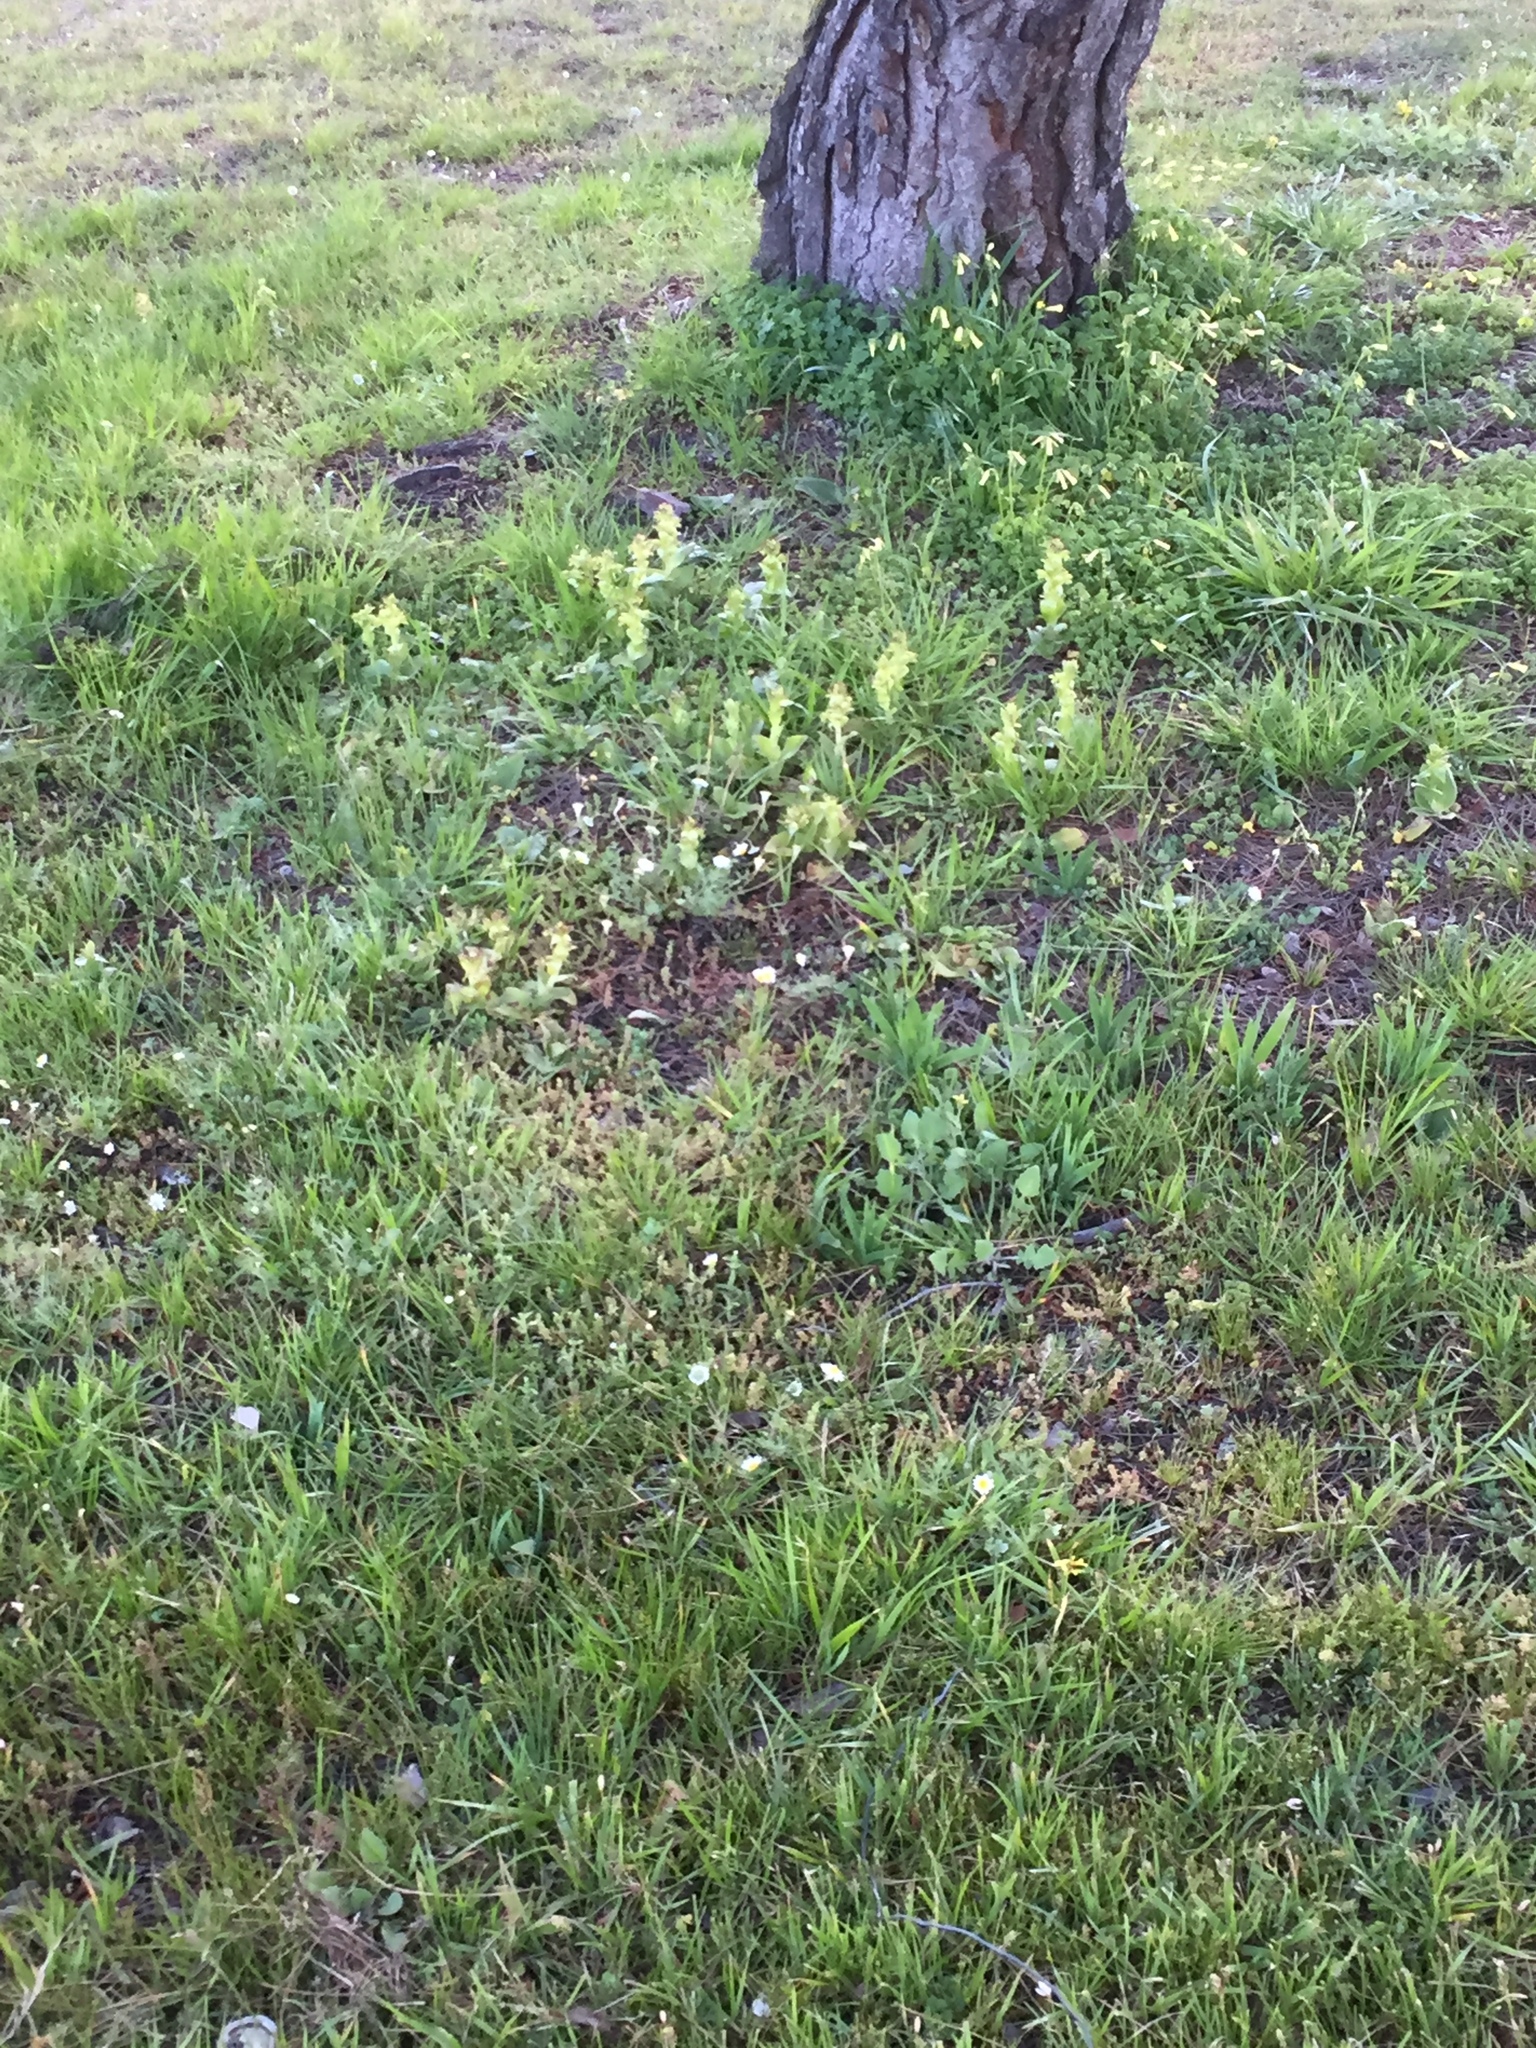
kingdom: Plantae
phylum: Tracheophyta
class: Liliopsida
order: Asparagales
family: Orchidaceae
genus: Satyrium
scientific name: Satyrium odorum
